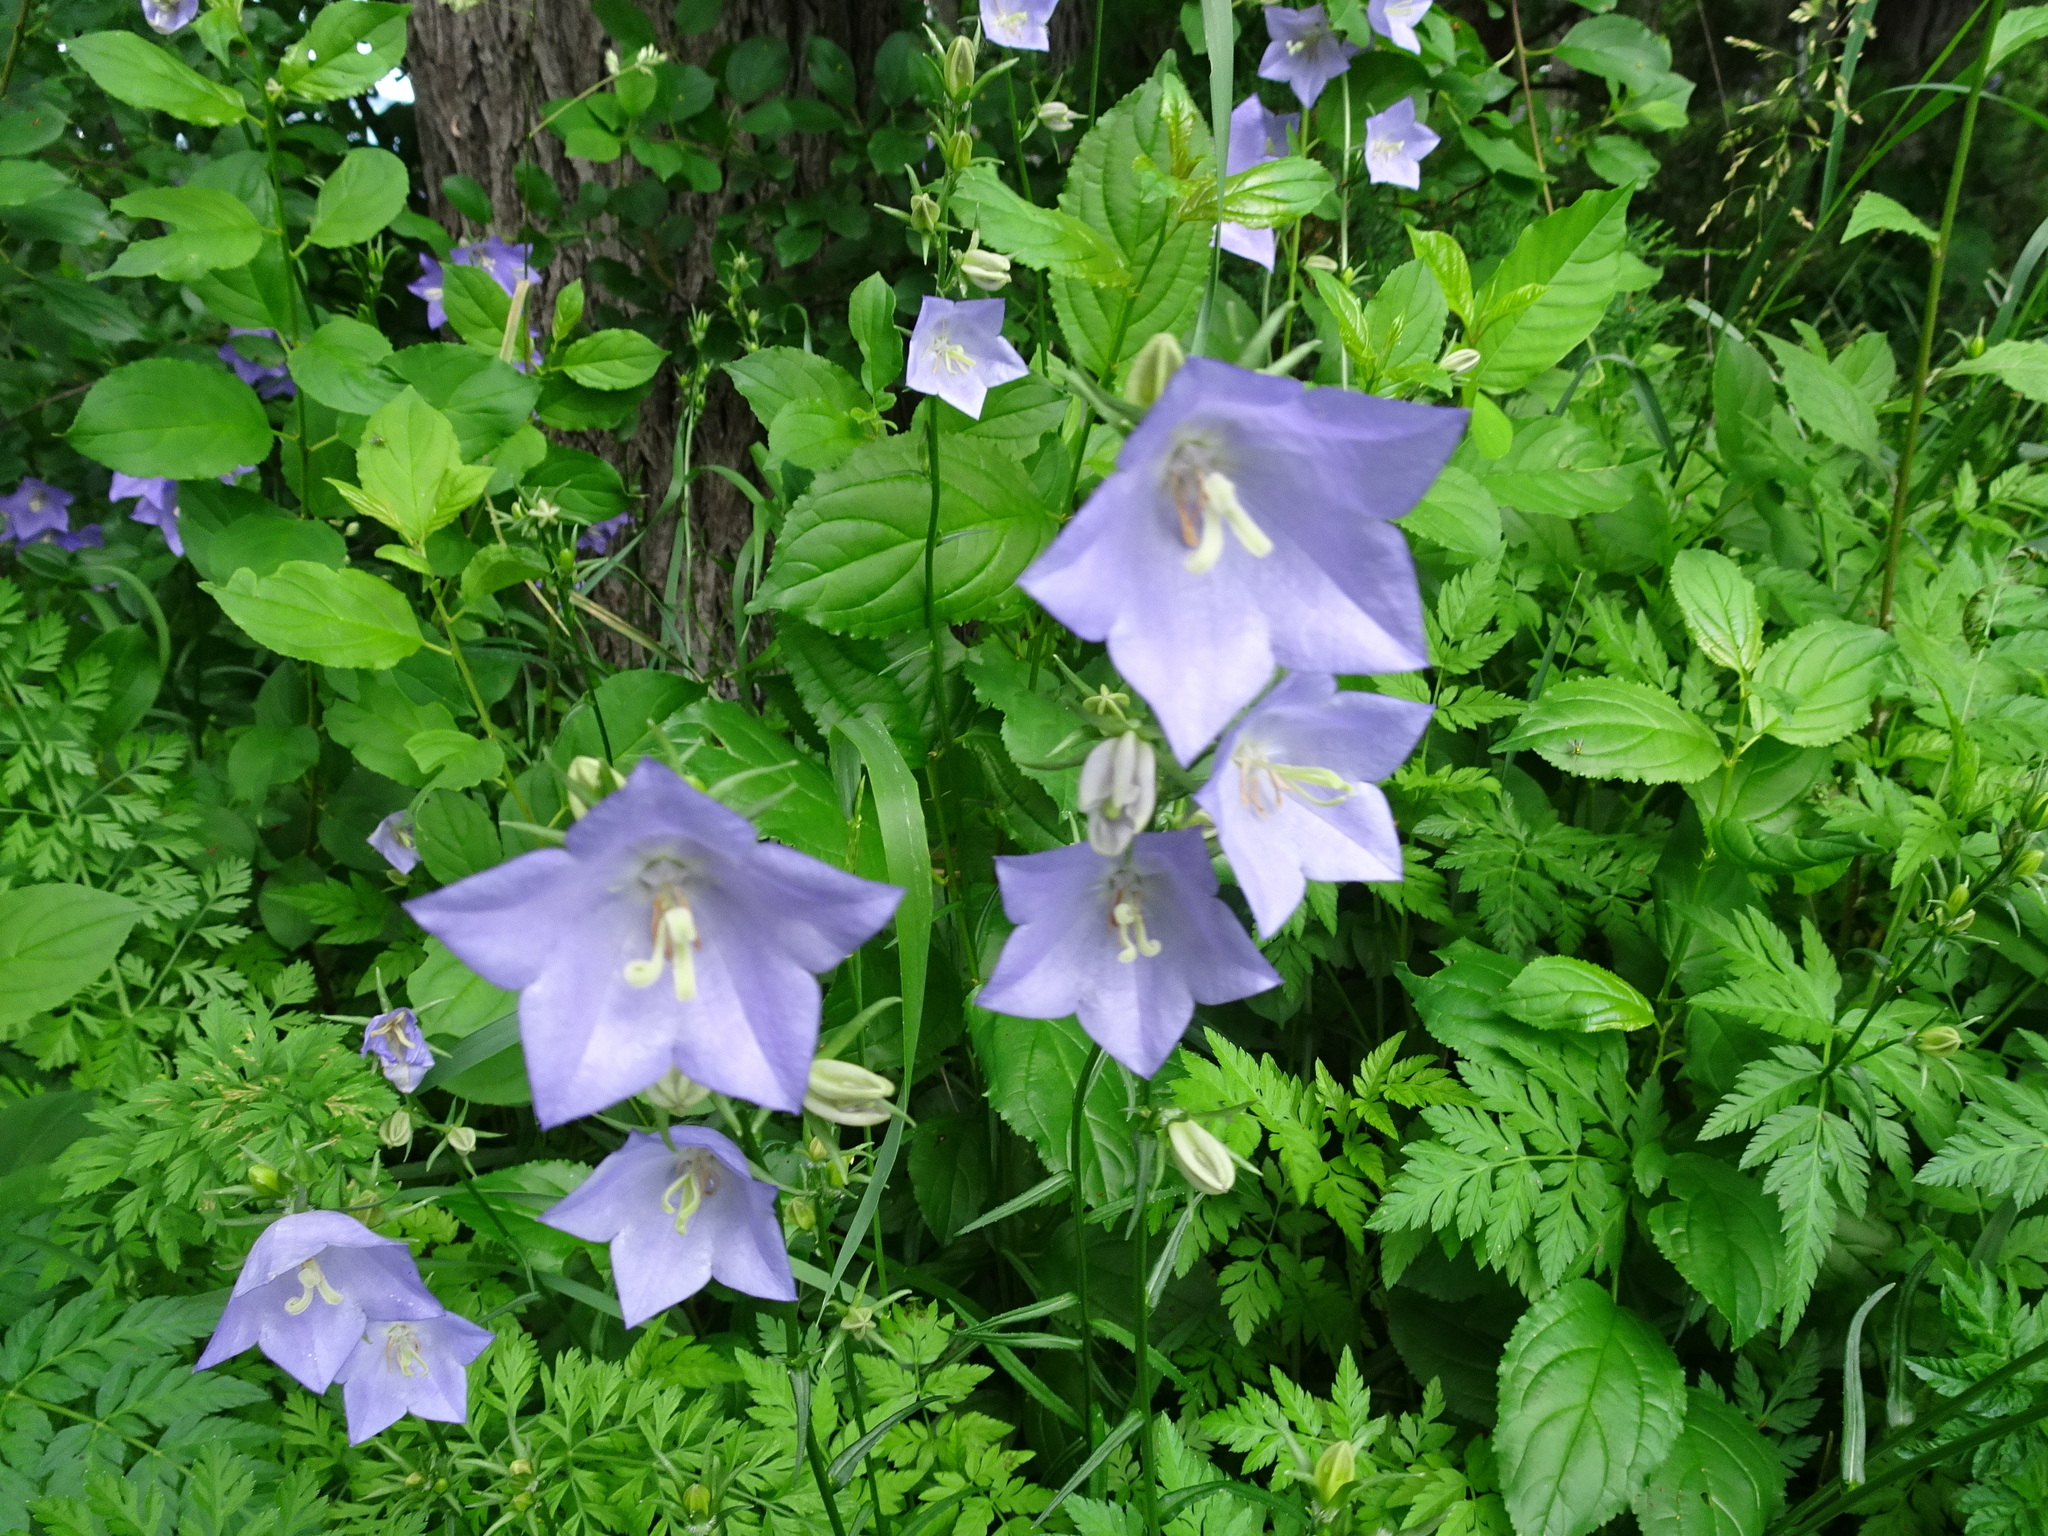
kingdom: Plantae
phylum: Tracheophyta
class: Magnoliopsida
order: Asterales
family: Campanulaceae
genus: Campanula
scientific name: Campanula persicifolia
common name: Peach-leaved bellflower
